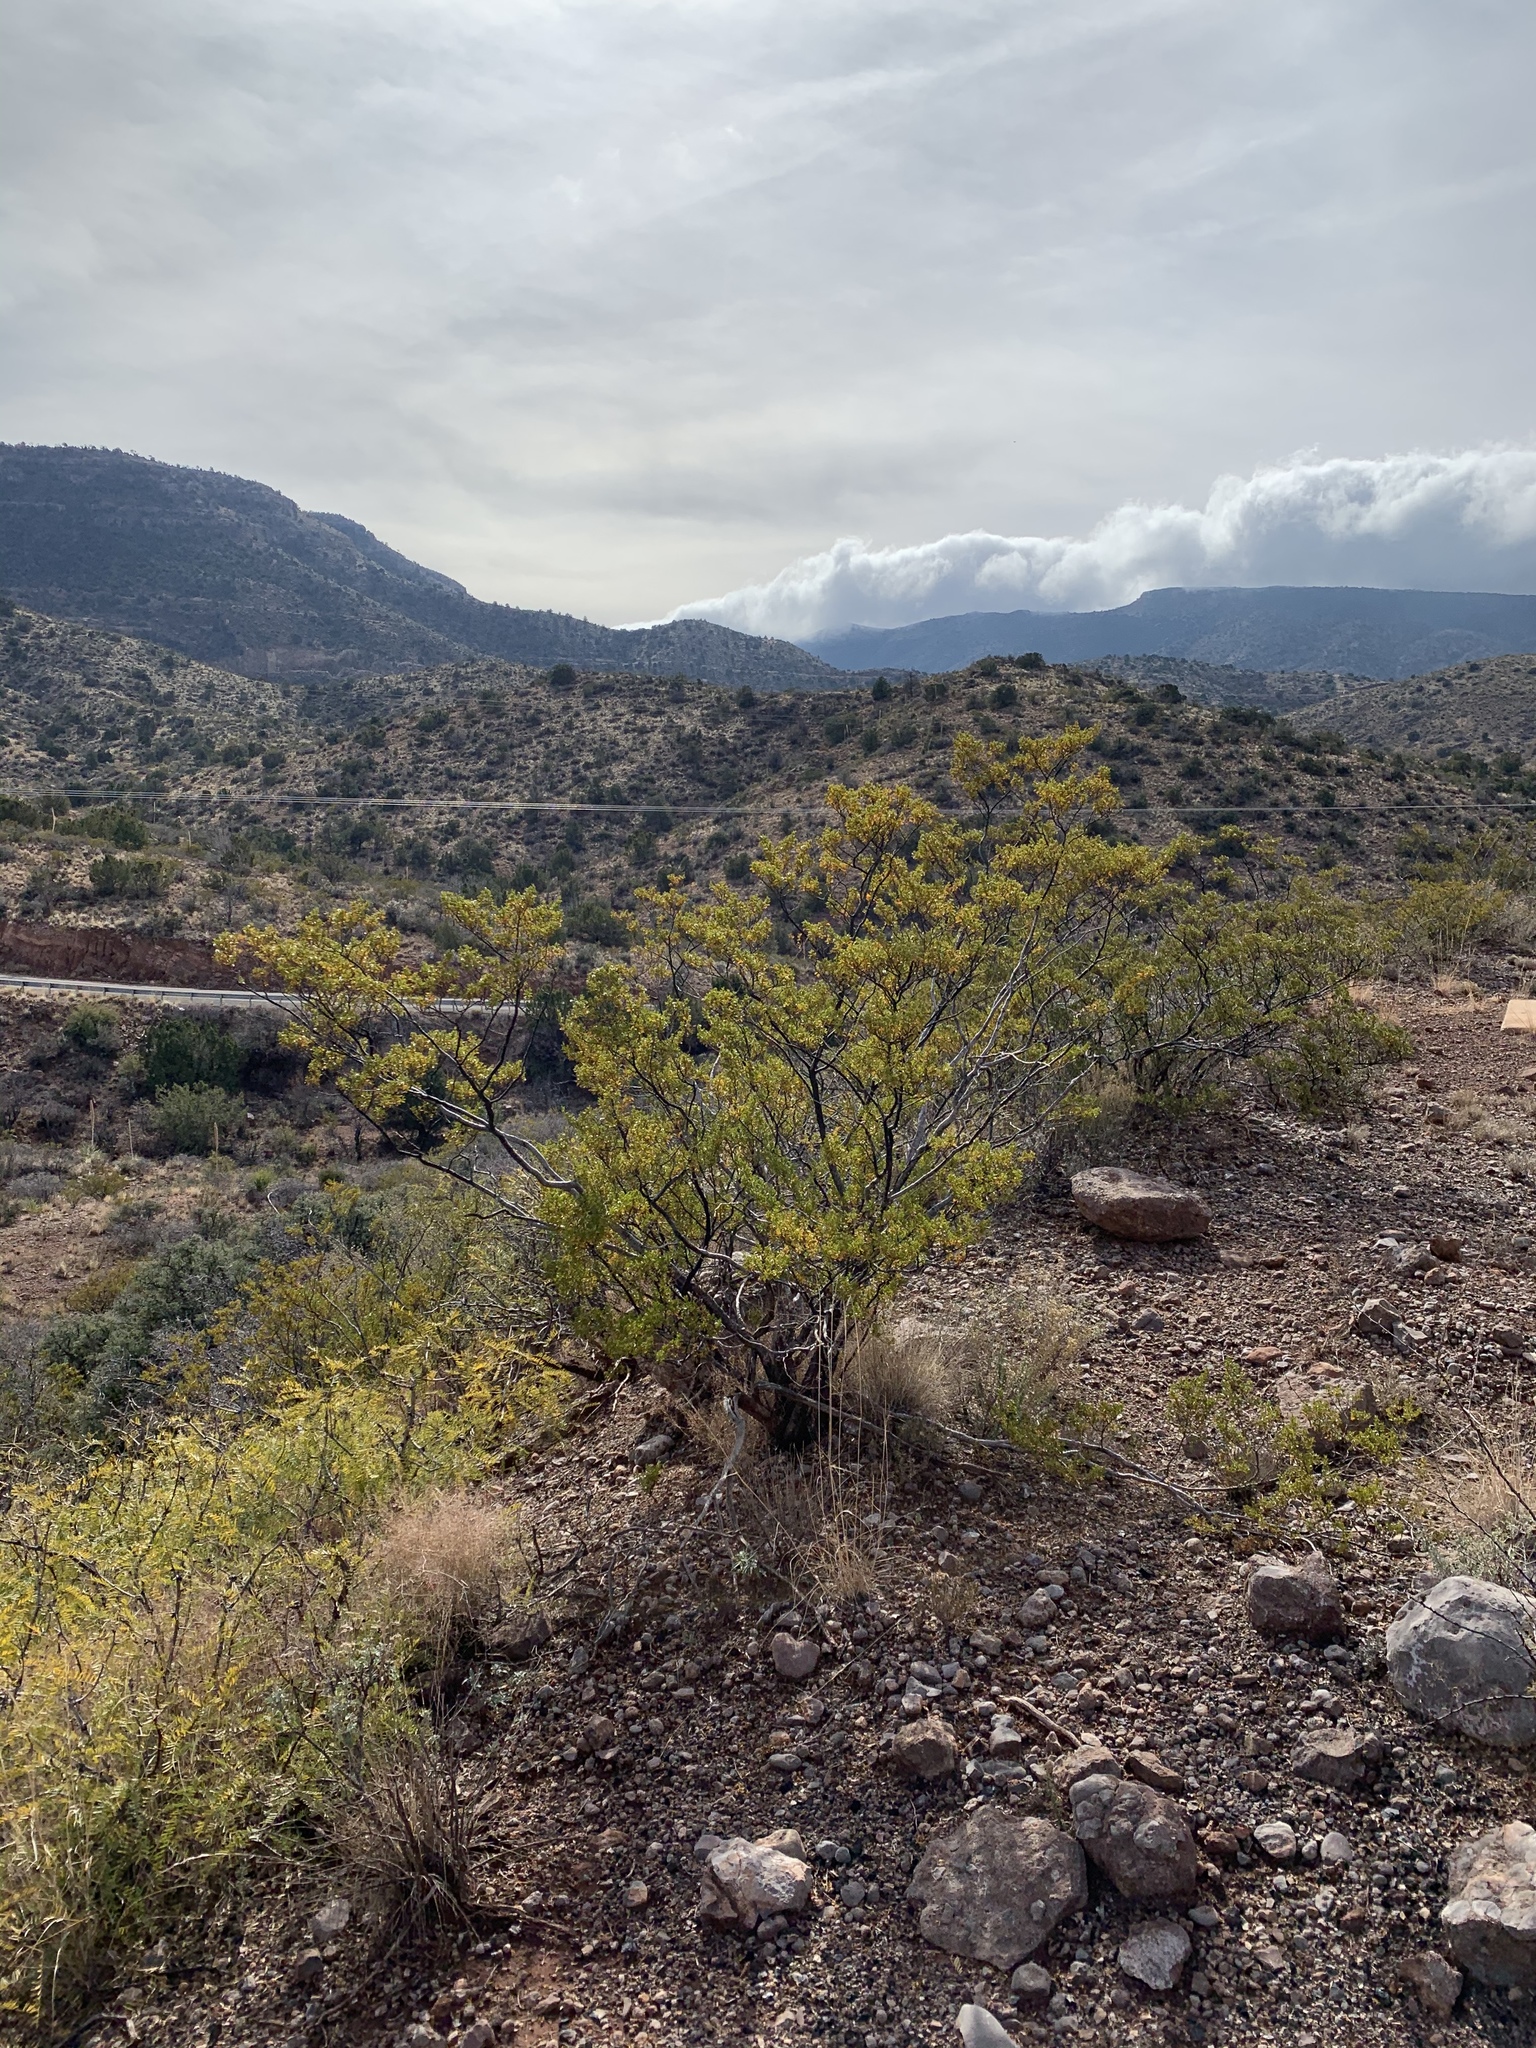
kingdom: Plantae
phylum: Tracheophyta
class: Magnoliopsida
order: Zygophyllales
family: Zygophyllaceae
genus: Larrea
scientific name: Larrea tridentata
